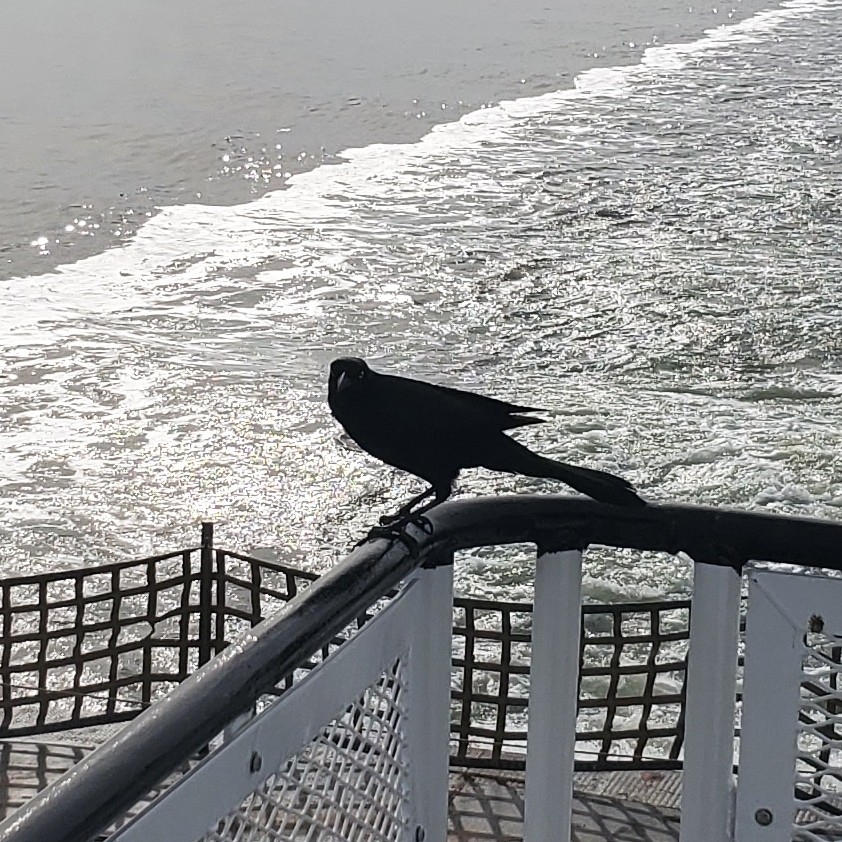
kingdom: Animalia
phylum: Chordata
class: Aves
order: Passeriformes
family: Icteridae
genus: Quiscalus
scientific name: Quiscalus major
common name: Boat-tailed grackle
